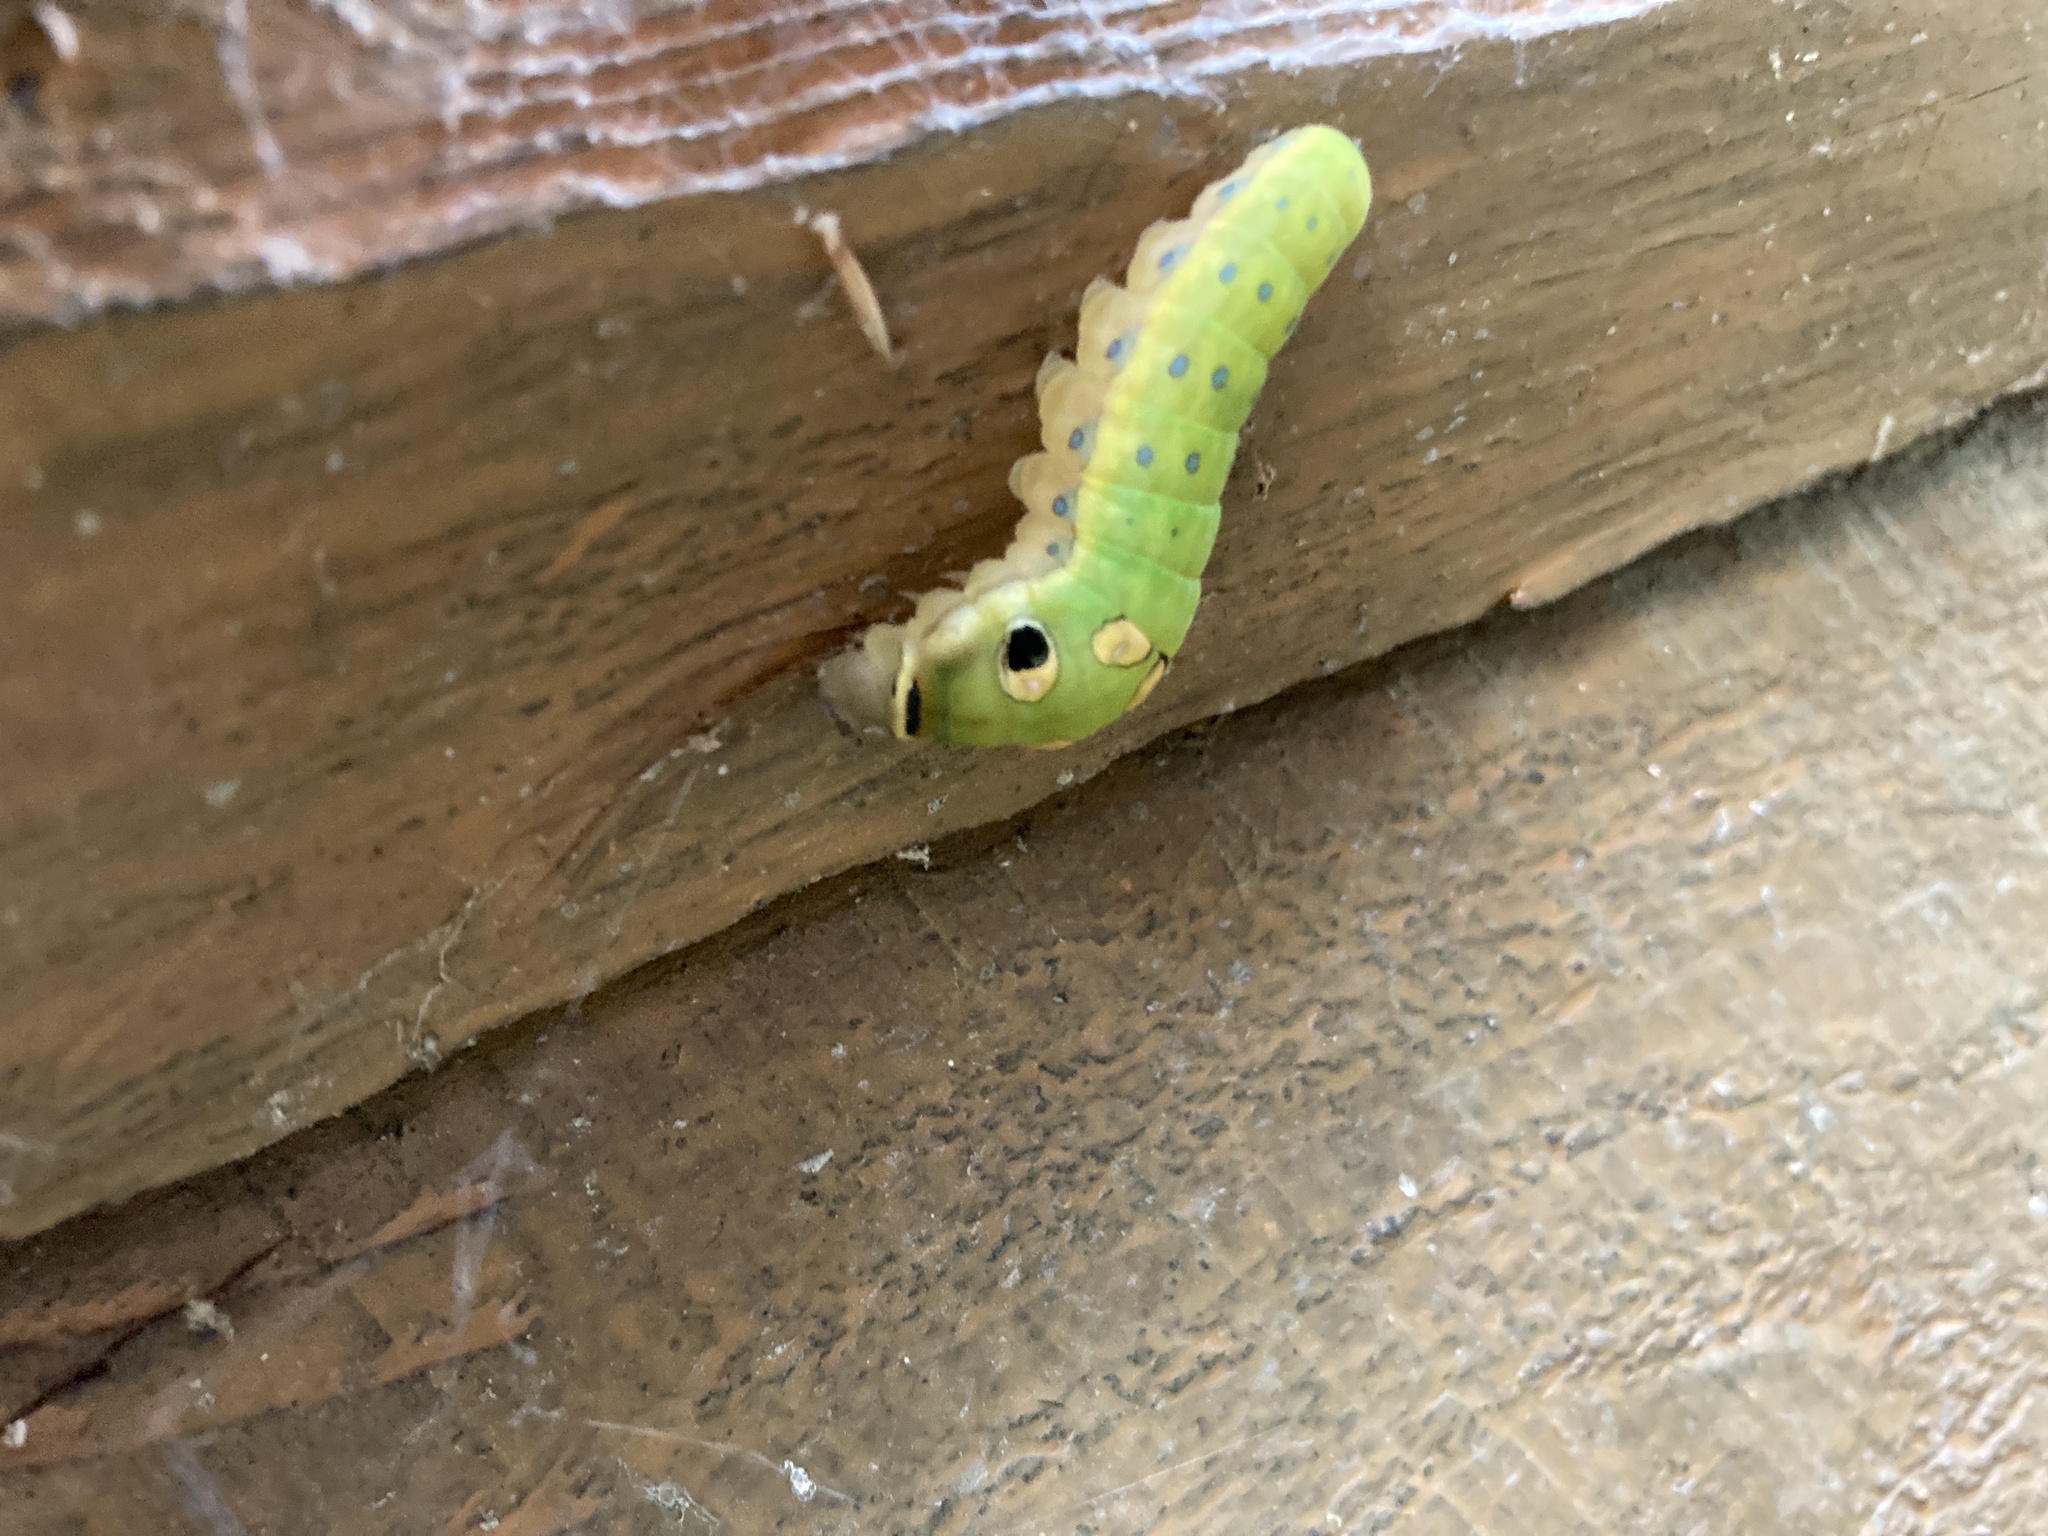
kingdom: Animalia
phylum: Arthropoda
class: Insecta
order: Lepidoptera
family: Papilionidae
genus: Papilio
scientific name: Papilio troilus
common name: Spicebush swallowtail
